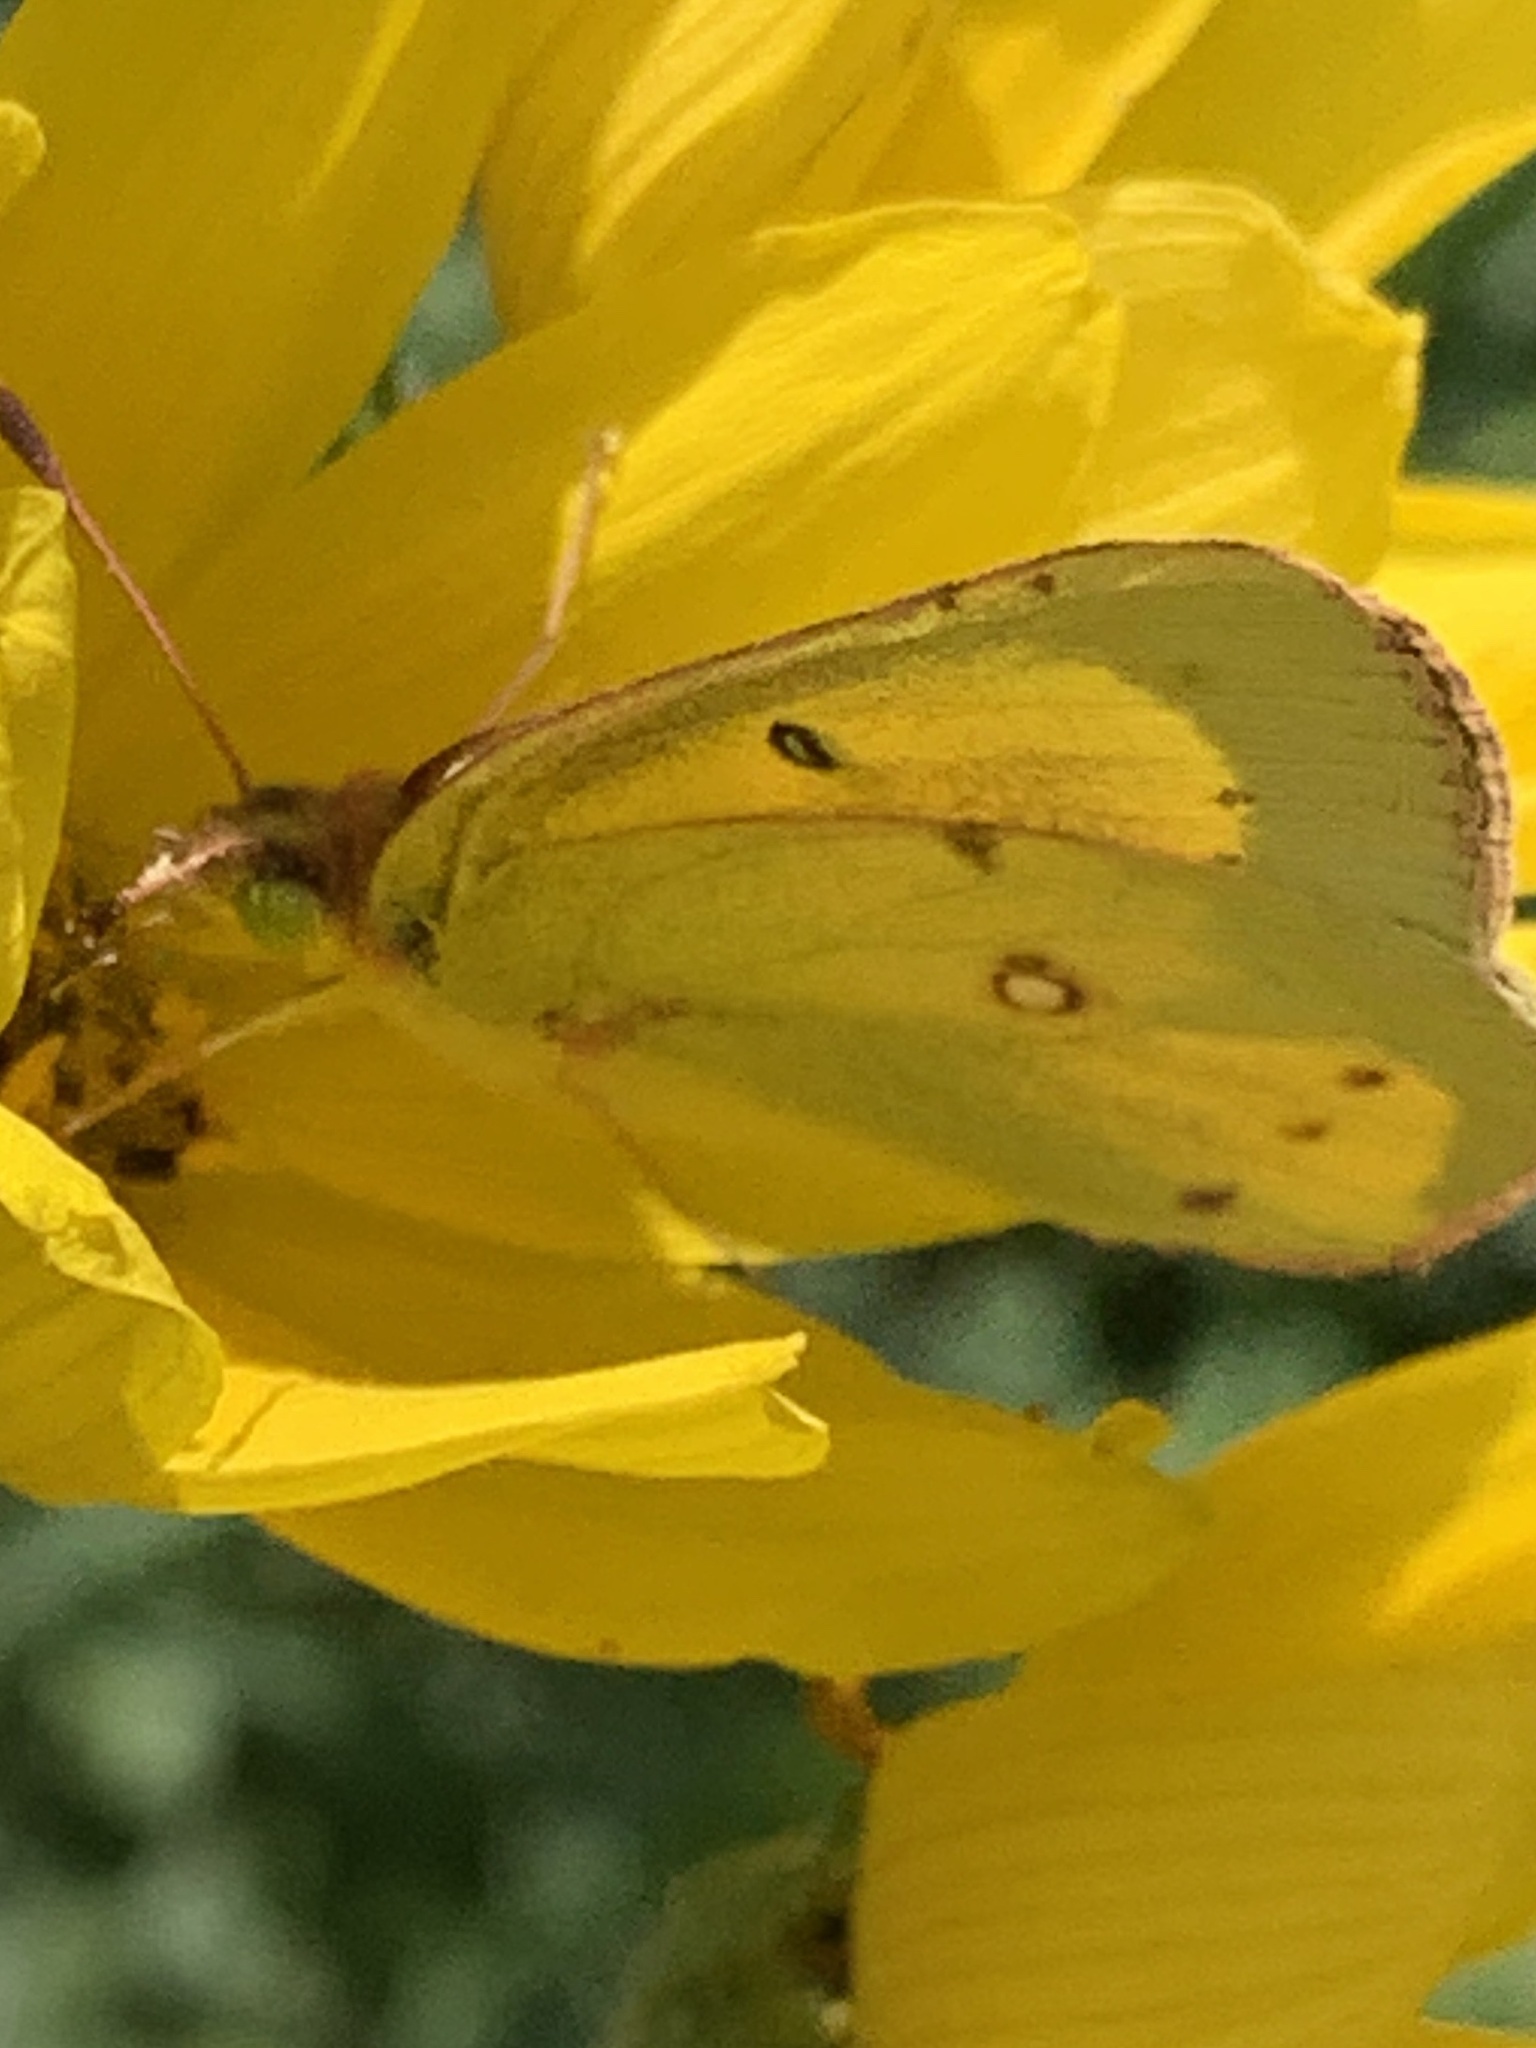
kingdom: Animalia
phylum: Arthropoda
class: Insecta
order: Lepidoptera
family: Pieridae
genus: Colias
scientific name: Colias eurytheme
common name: Alfalfa butterfly
